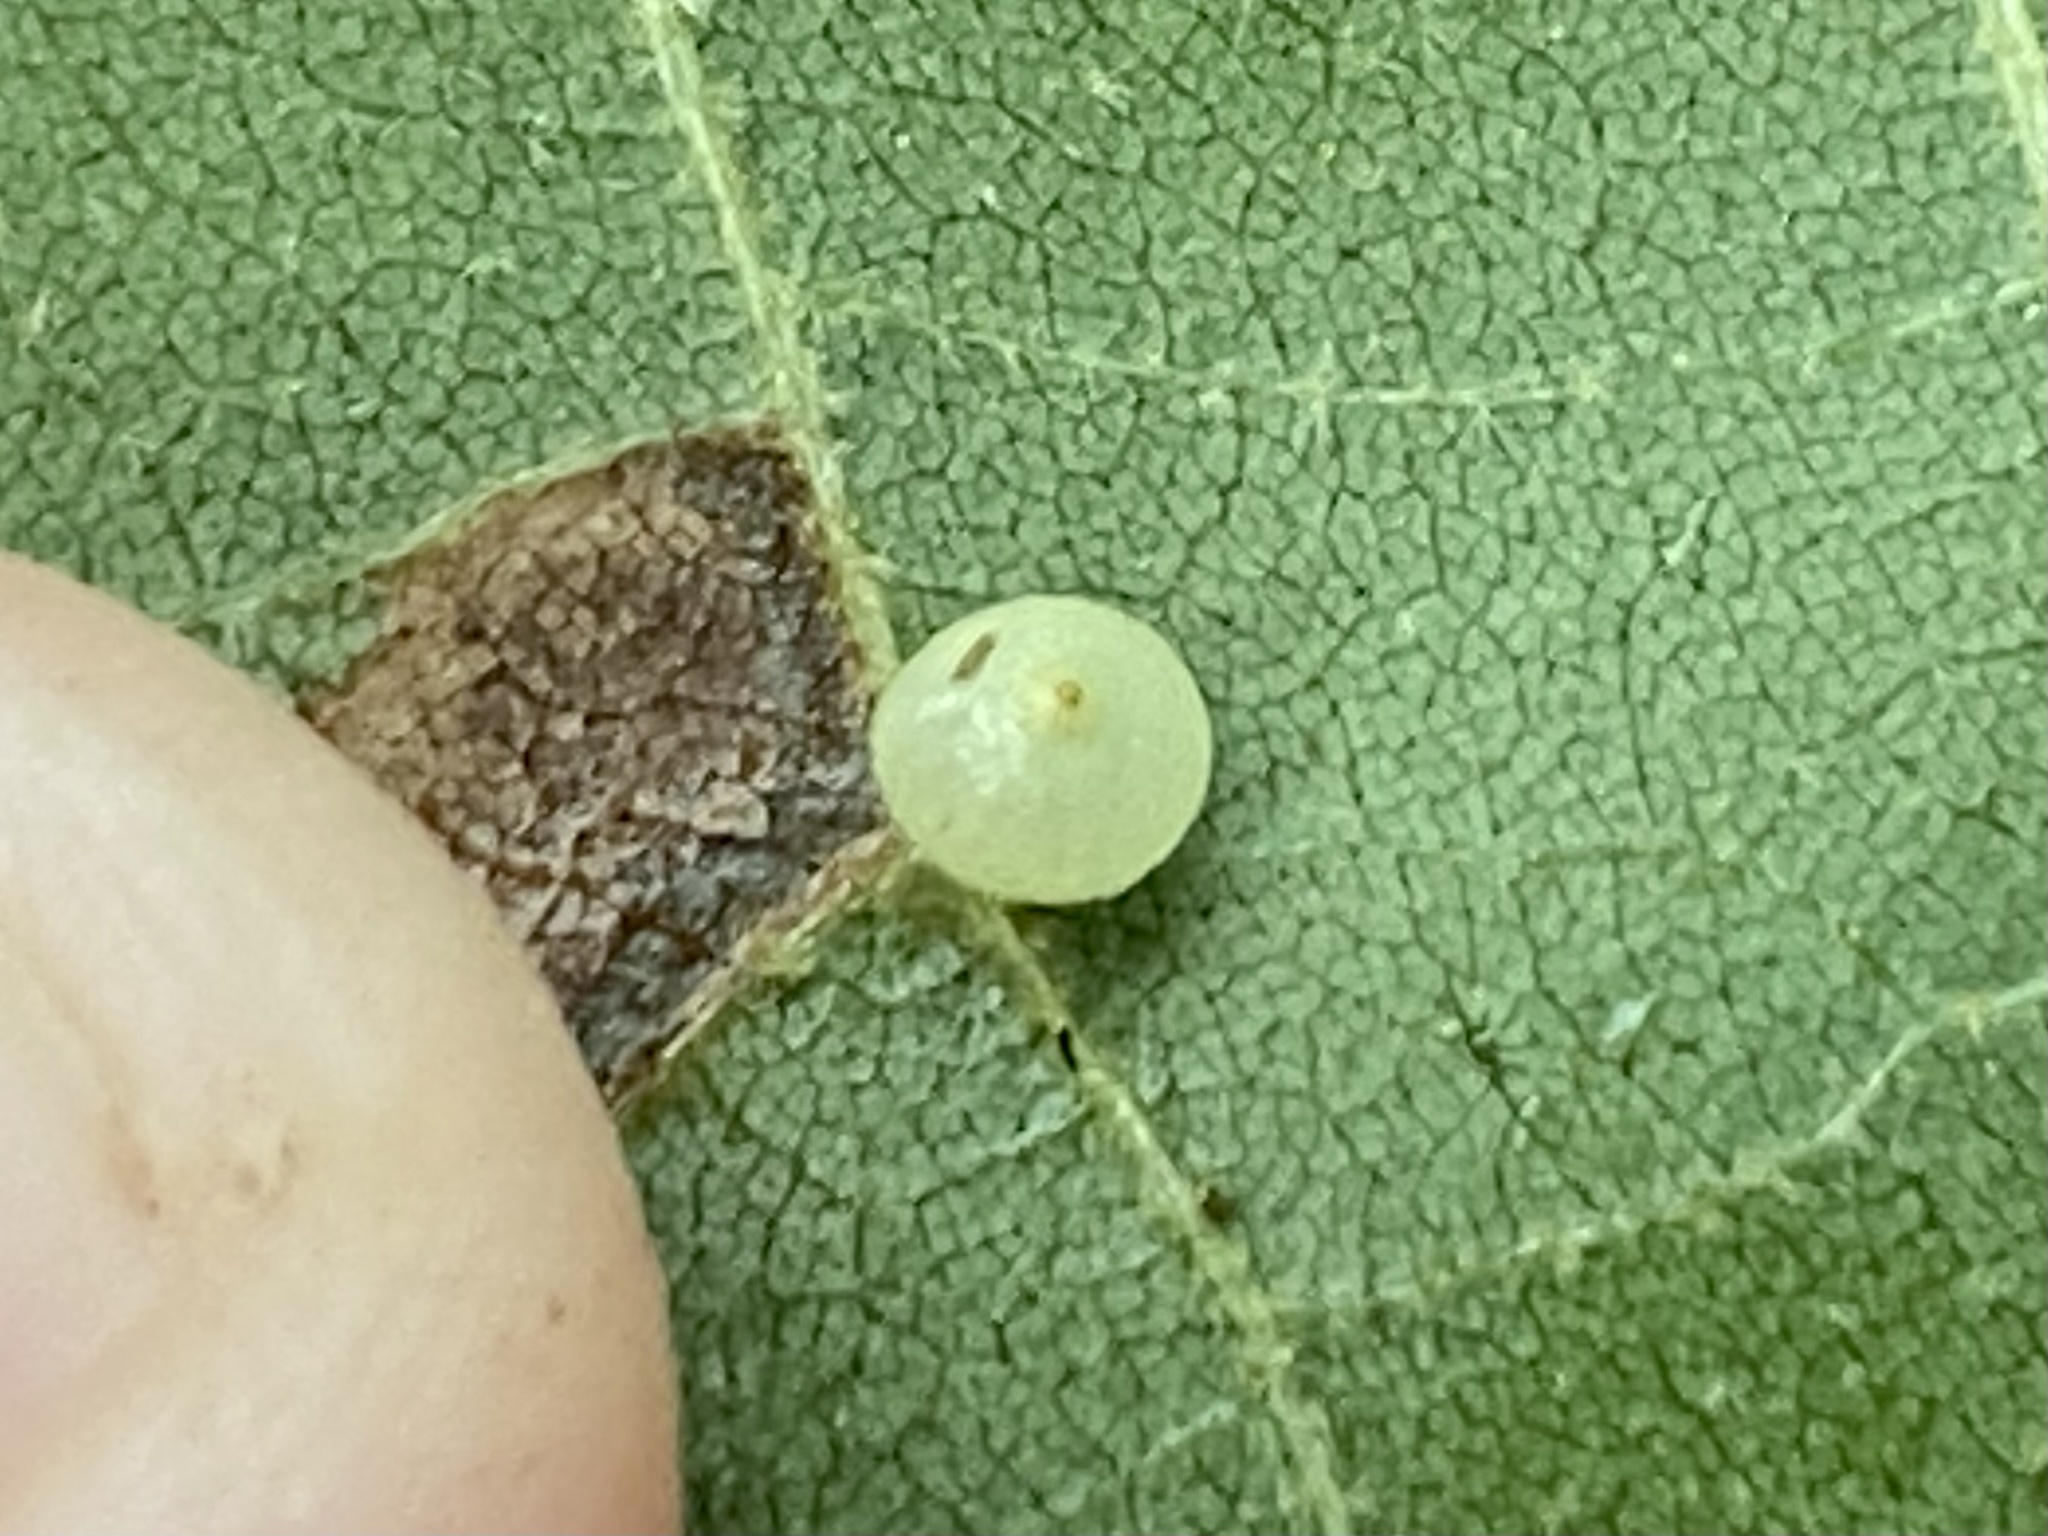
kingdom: Animalia
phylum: Arthropoda
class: Insecta
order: Diptera
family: Cecidomyiidae
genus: Caryomyia
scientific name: Caryomyia caryae
